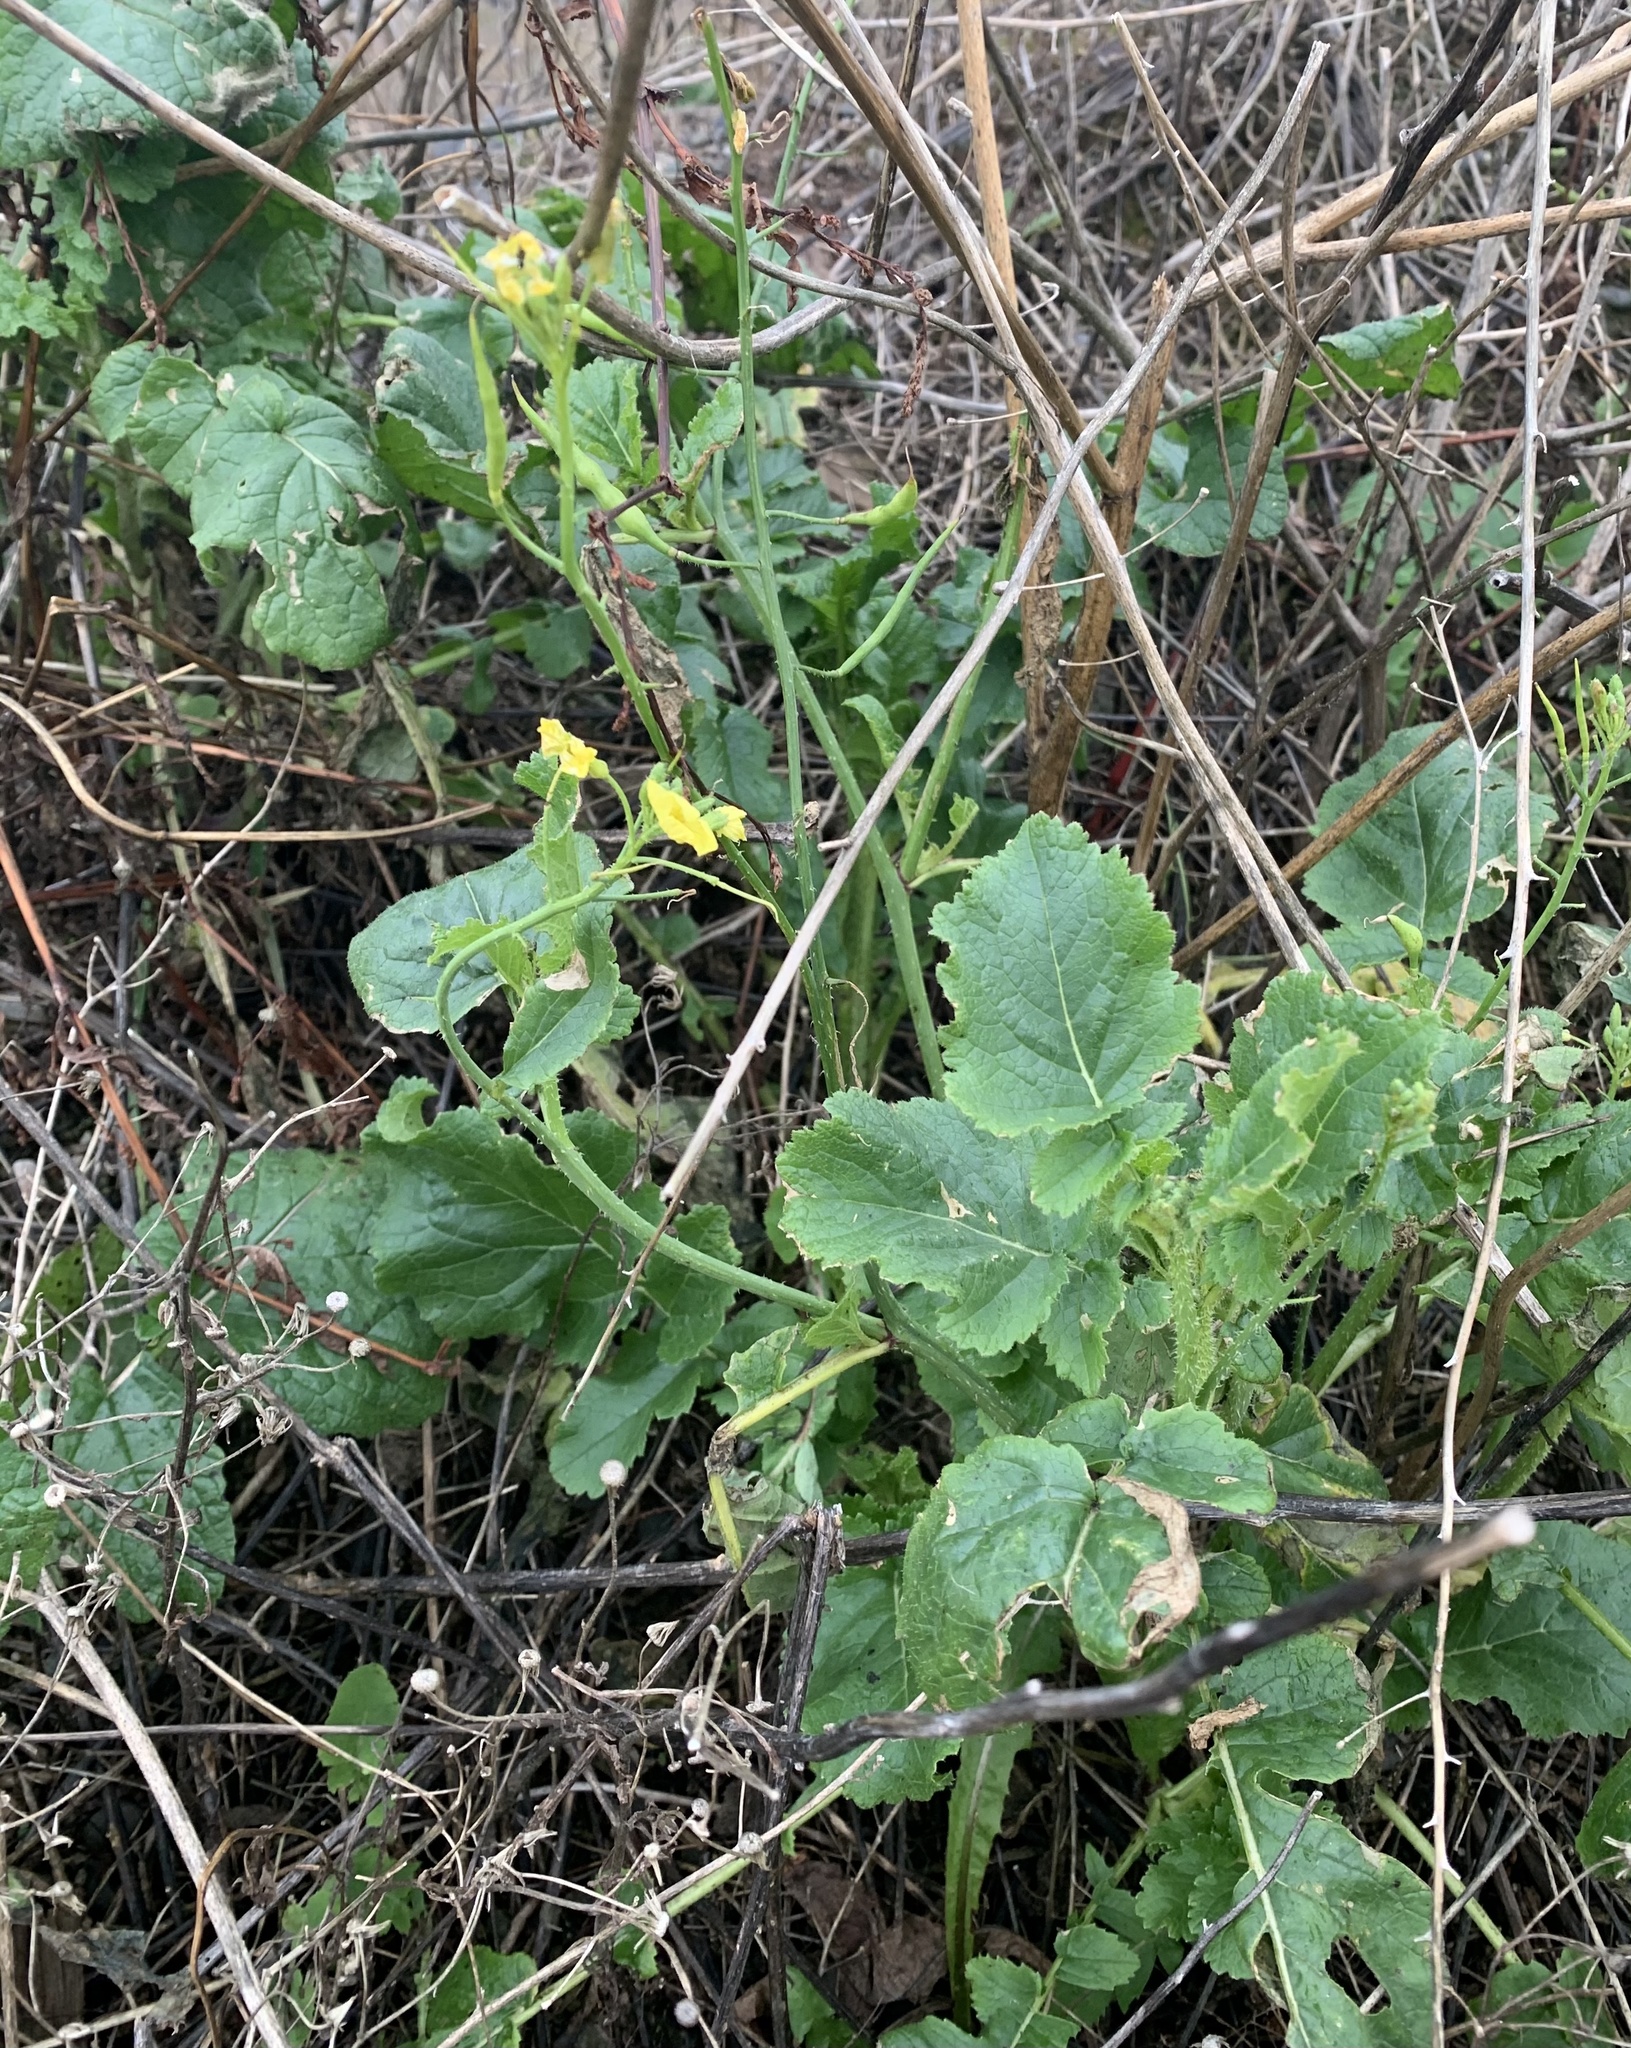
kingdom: Plantae
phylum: Tracheophyta
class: Magnoliopsida
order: Brassicales
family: Brassicaceae
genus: Raphanus
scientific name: Raphanus raphanistrum
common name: Wild radish
